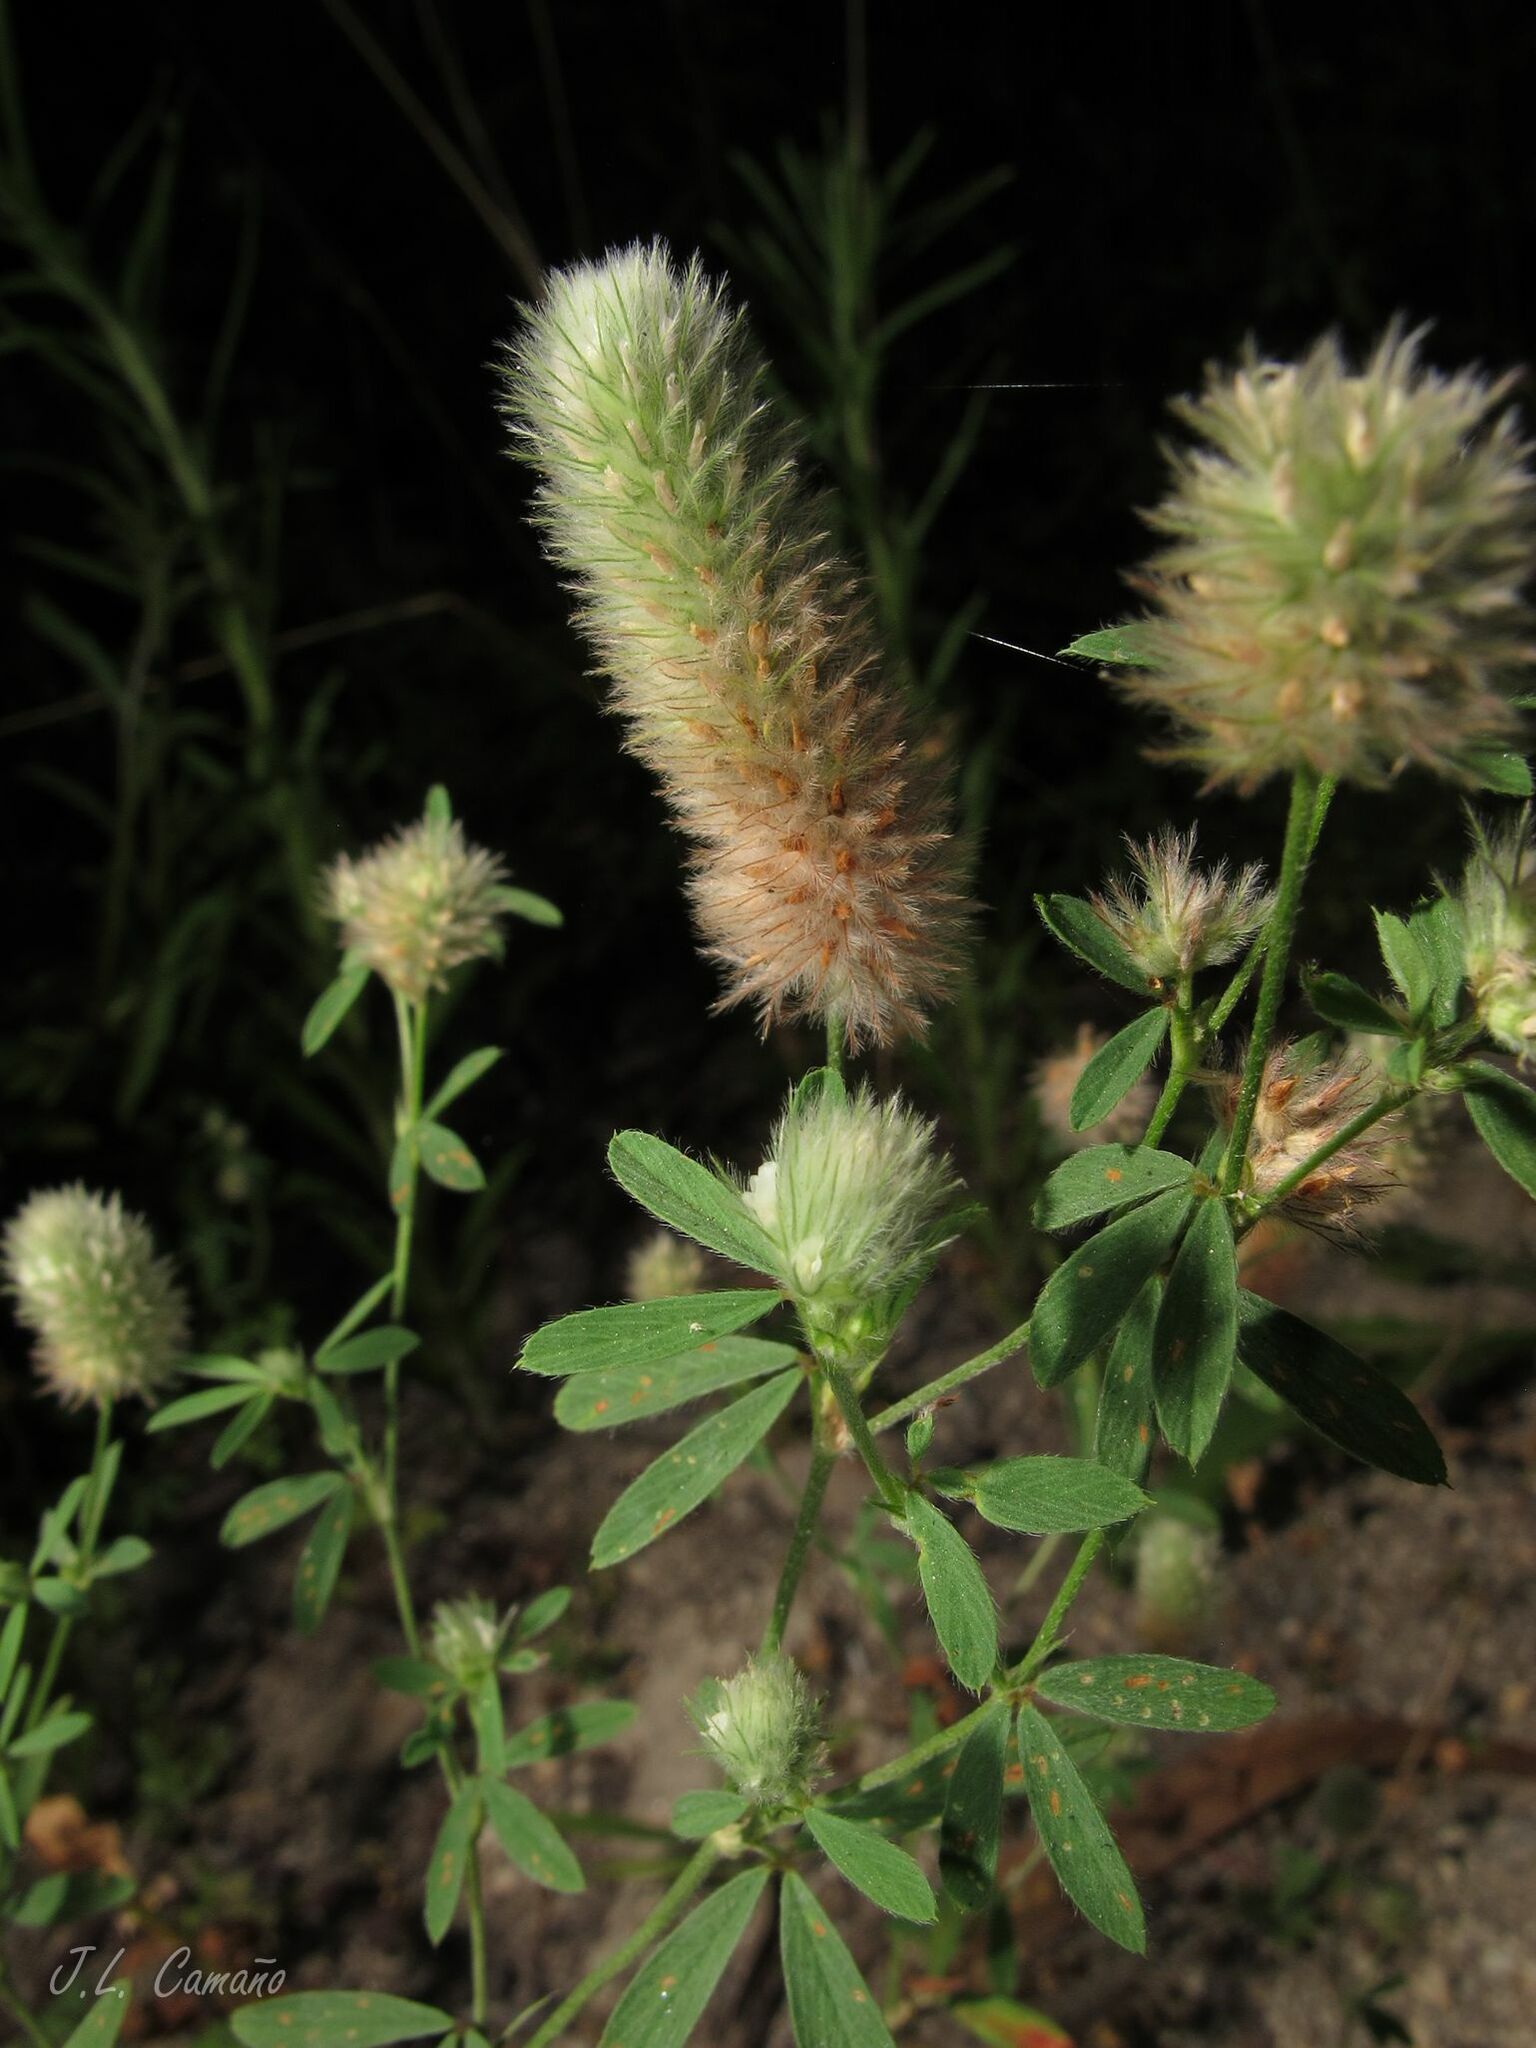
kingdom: Plantae
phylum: Tracheophyta
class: Magnoliopsida
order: Fabales
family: Fabaceae
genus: Trifolium
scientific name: Trifolium arvense
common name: Hare's-foot clover
